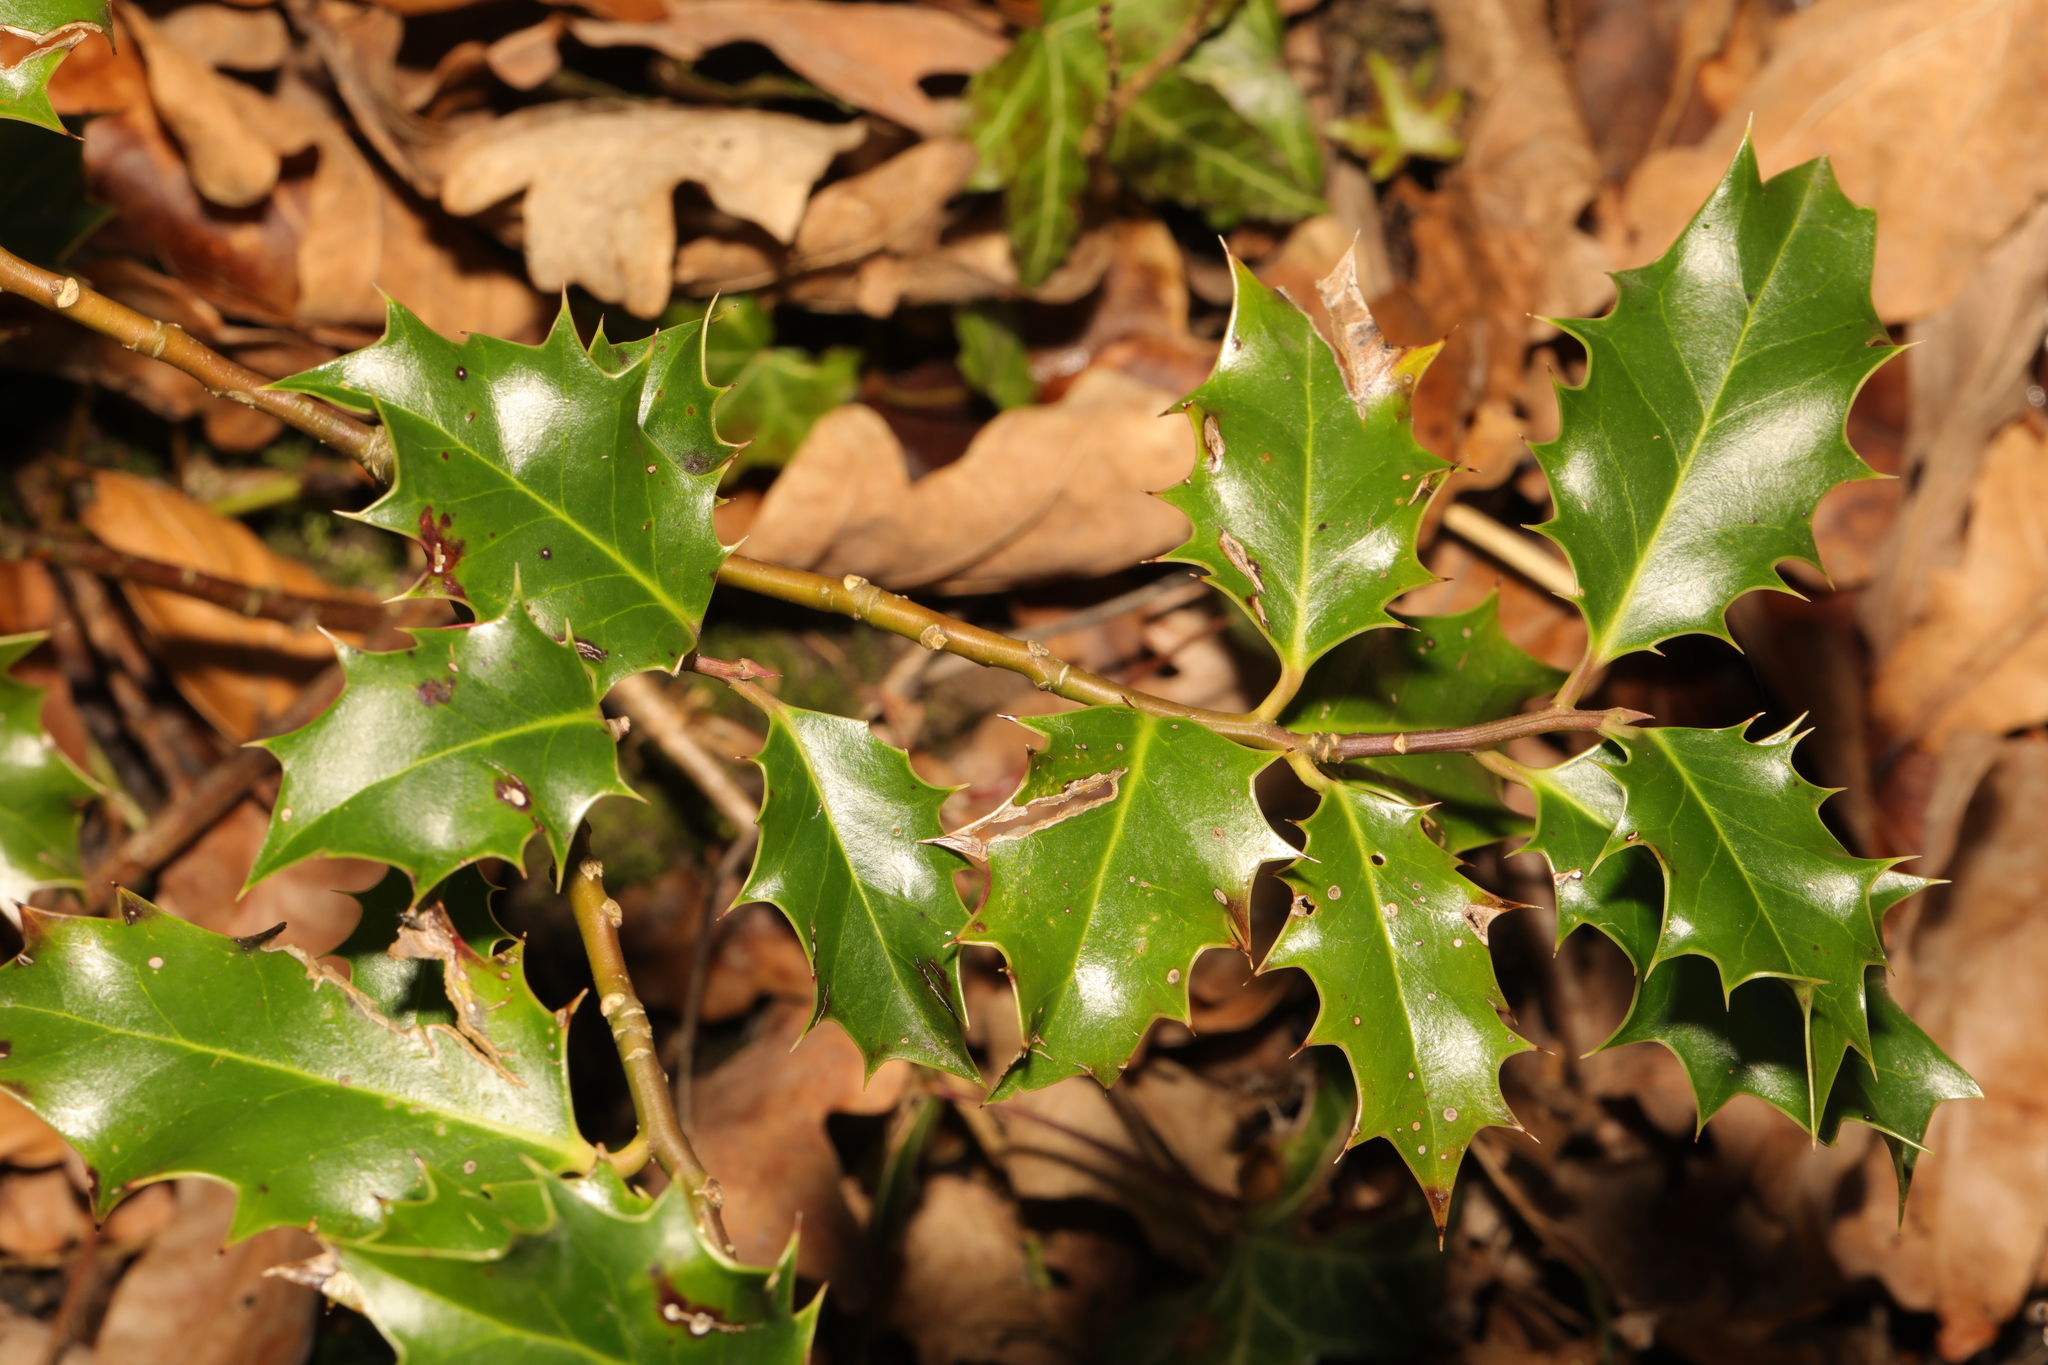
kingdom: Plantae
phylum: Tracheophyta
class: Magnoliopsida
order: Aquifoliales
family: Aquifoliaceae
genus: Ilex
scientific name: Ilex aquifolium
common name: English holly
